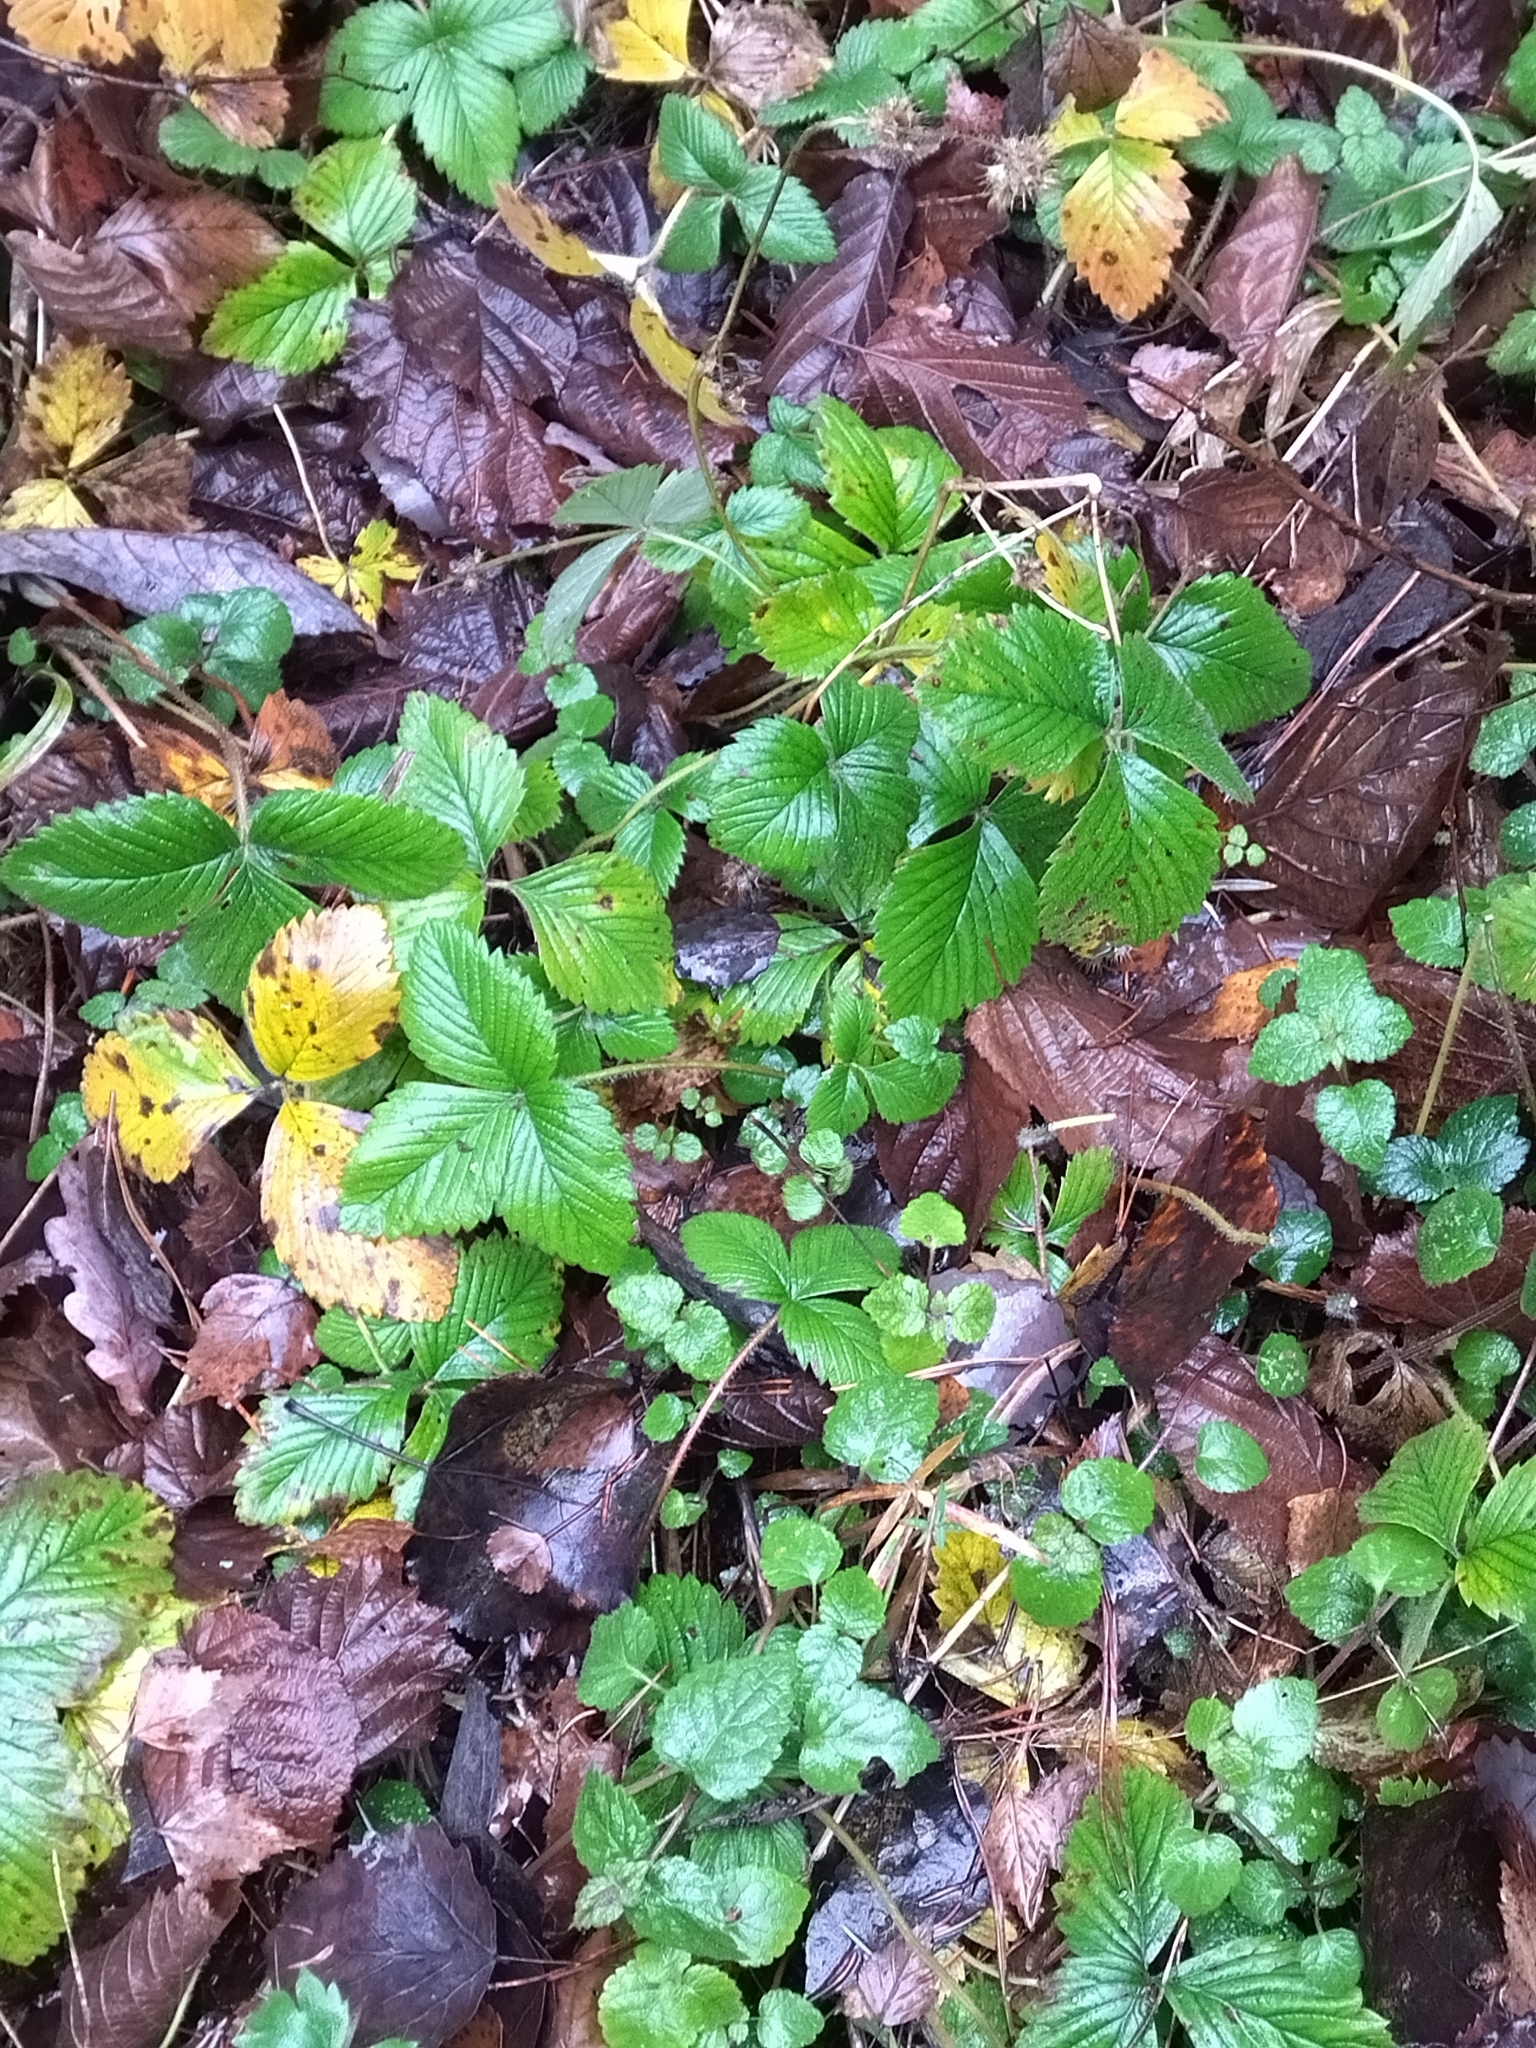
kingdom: Plantae
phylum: Tracheophyta
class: Magnoliopsida
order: Rosales
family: Rosaceae
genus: Fragaria
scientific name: Fragaria moschata
